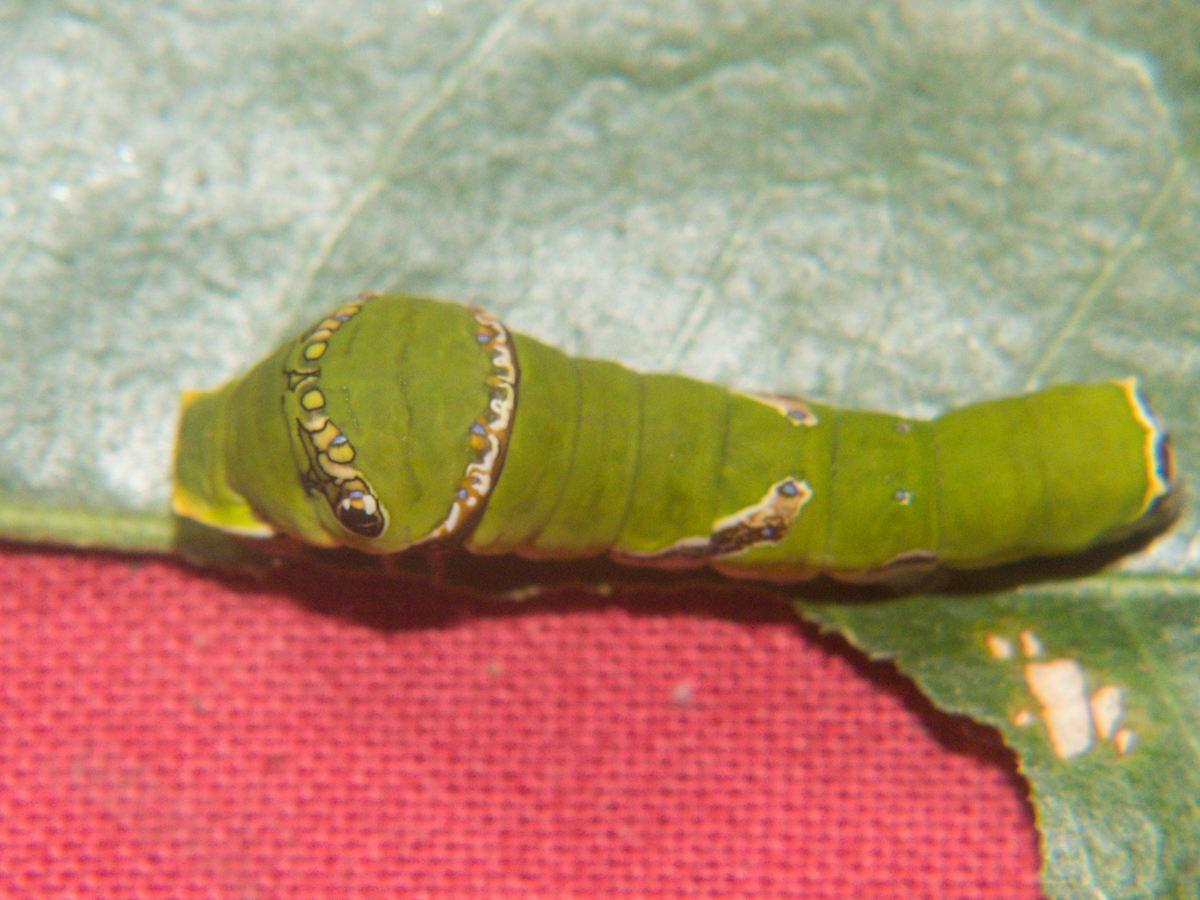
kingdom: Animalia
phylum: Arthropoda
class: Insecta
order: Lepidoptera
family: Papilionidae
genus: Papilio
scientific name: Papilio polytes
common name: Common mormon
